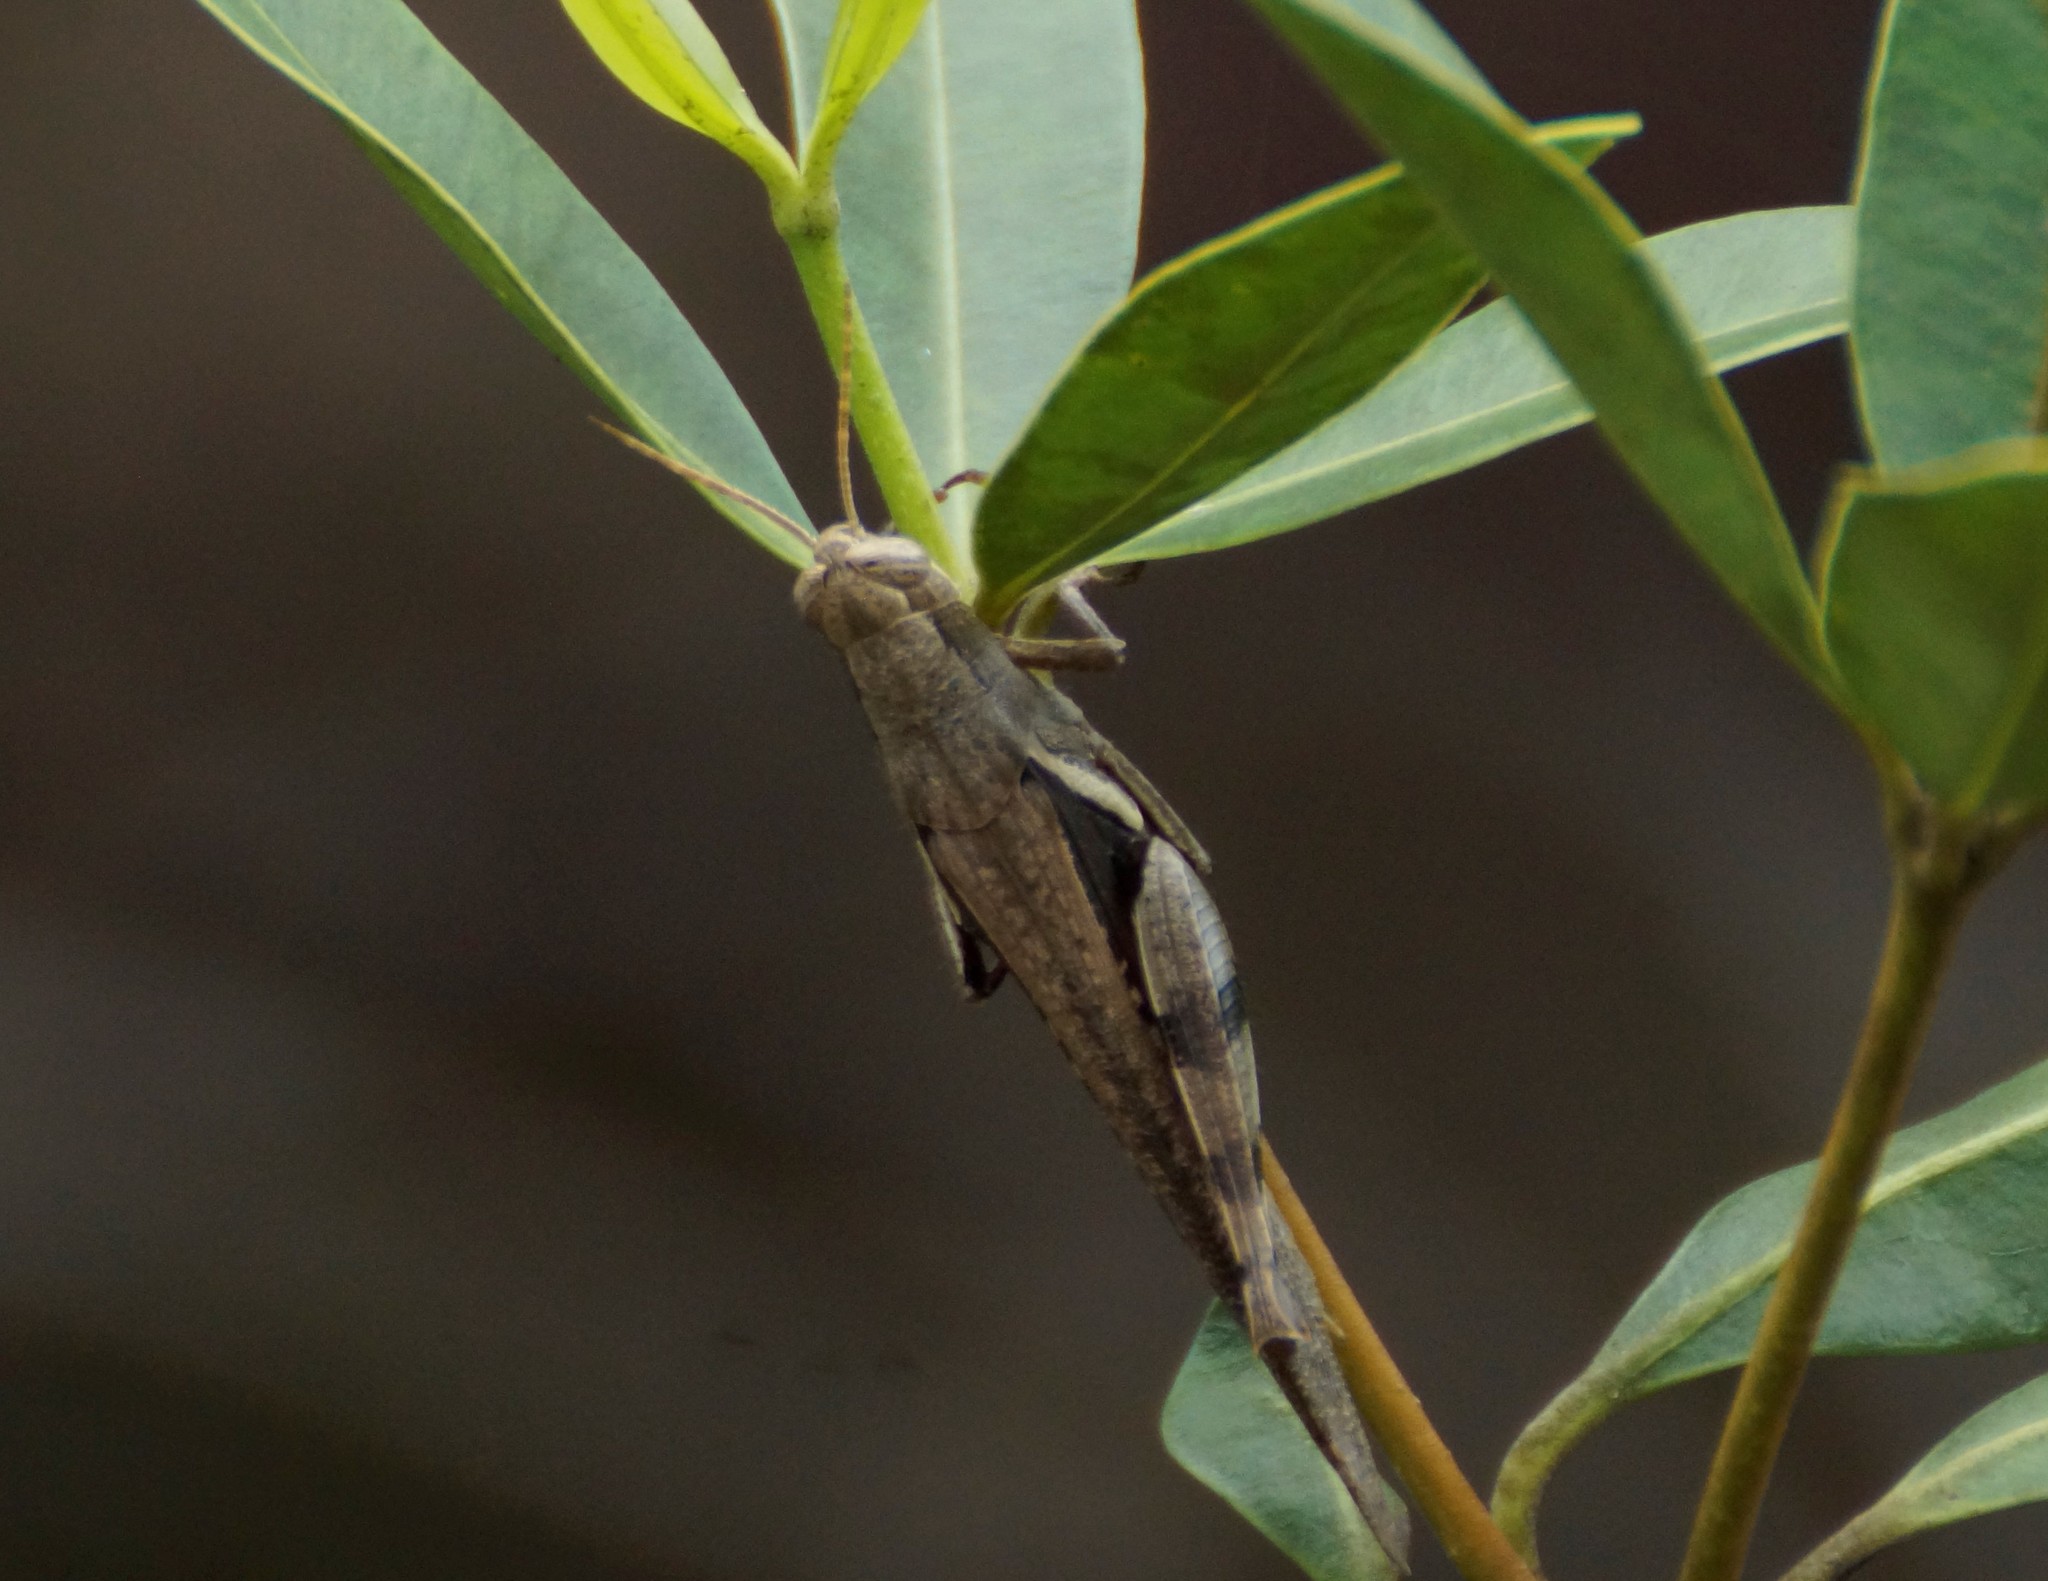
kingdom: Animalia
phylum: Arthropoda
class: Insecta
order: Orthoptera
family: Acrididae
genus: Stenocatantops
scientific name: Stenocatantops angustifrons
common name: Common tropical sharptail
